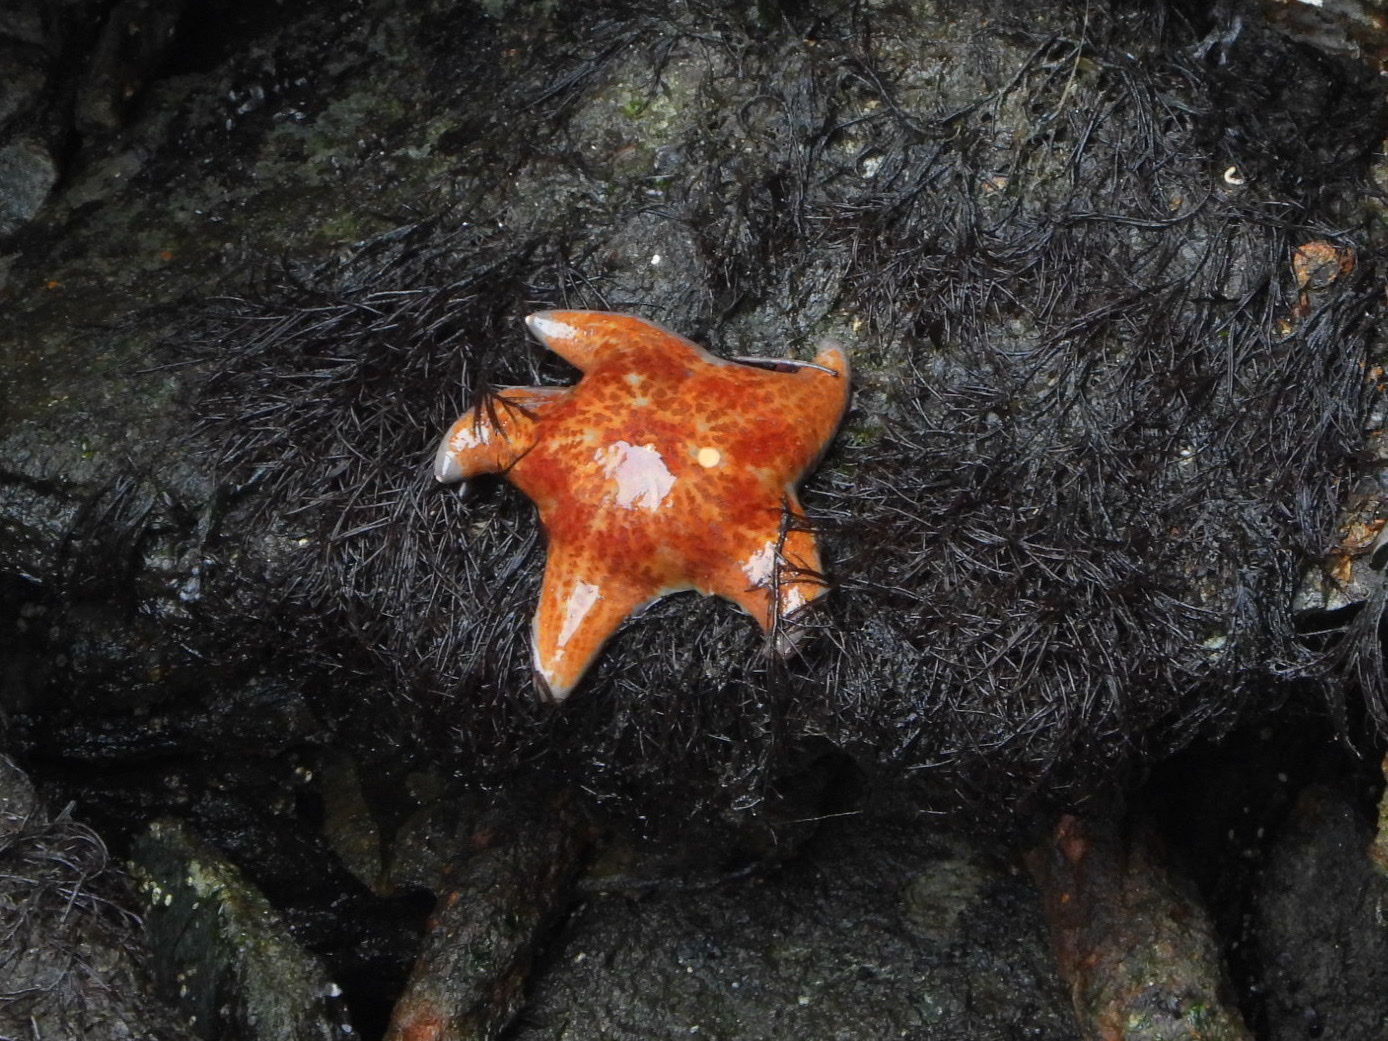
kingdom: Animalia
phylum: Echinodermata
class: Asteroidea
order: Valvatida
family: Asteropseidae
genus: Dermasterias
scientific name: Dermasterias imbricata
